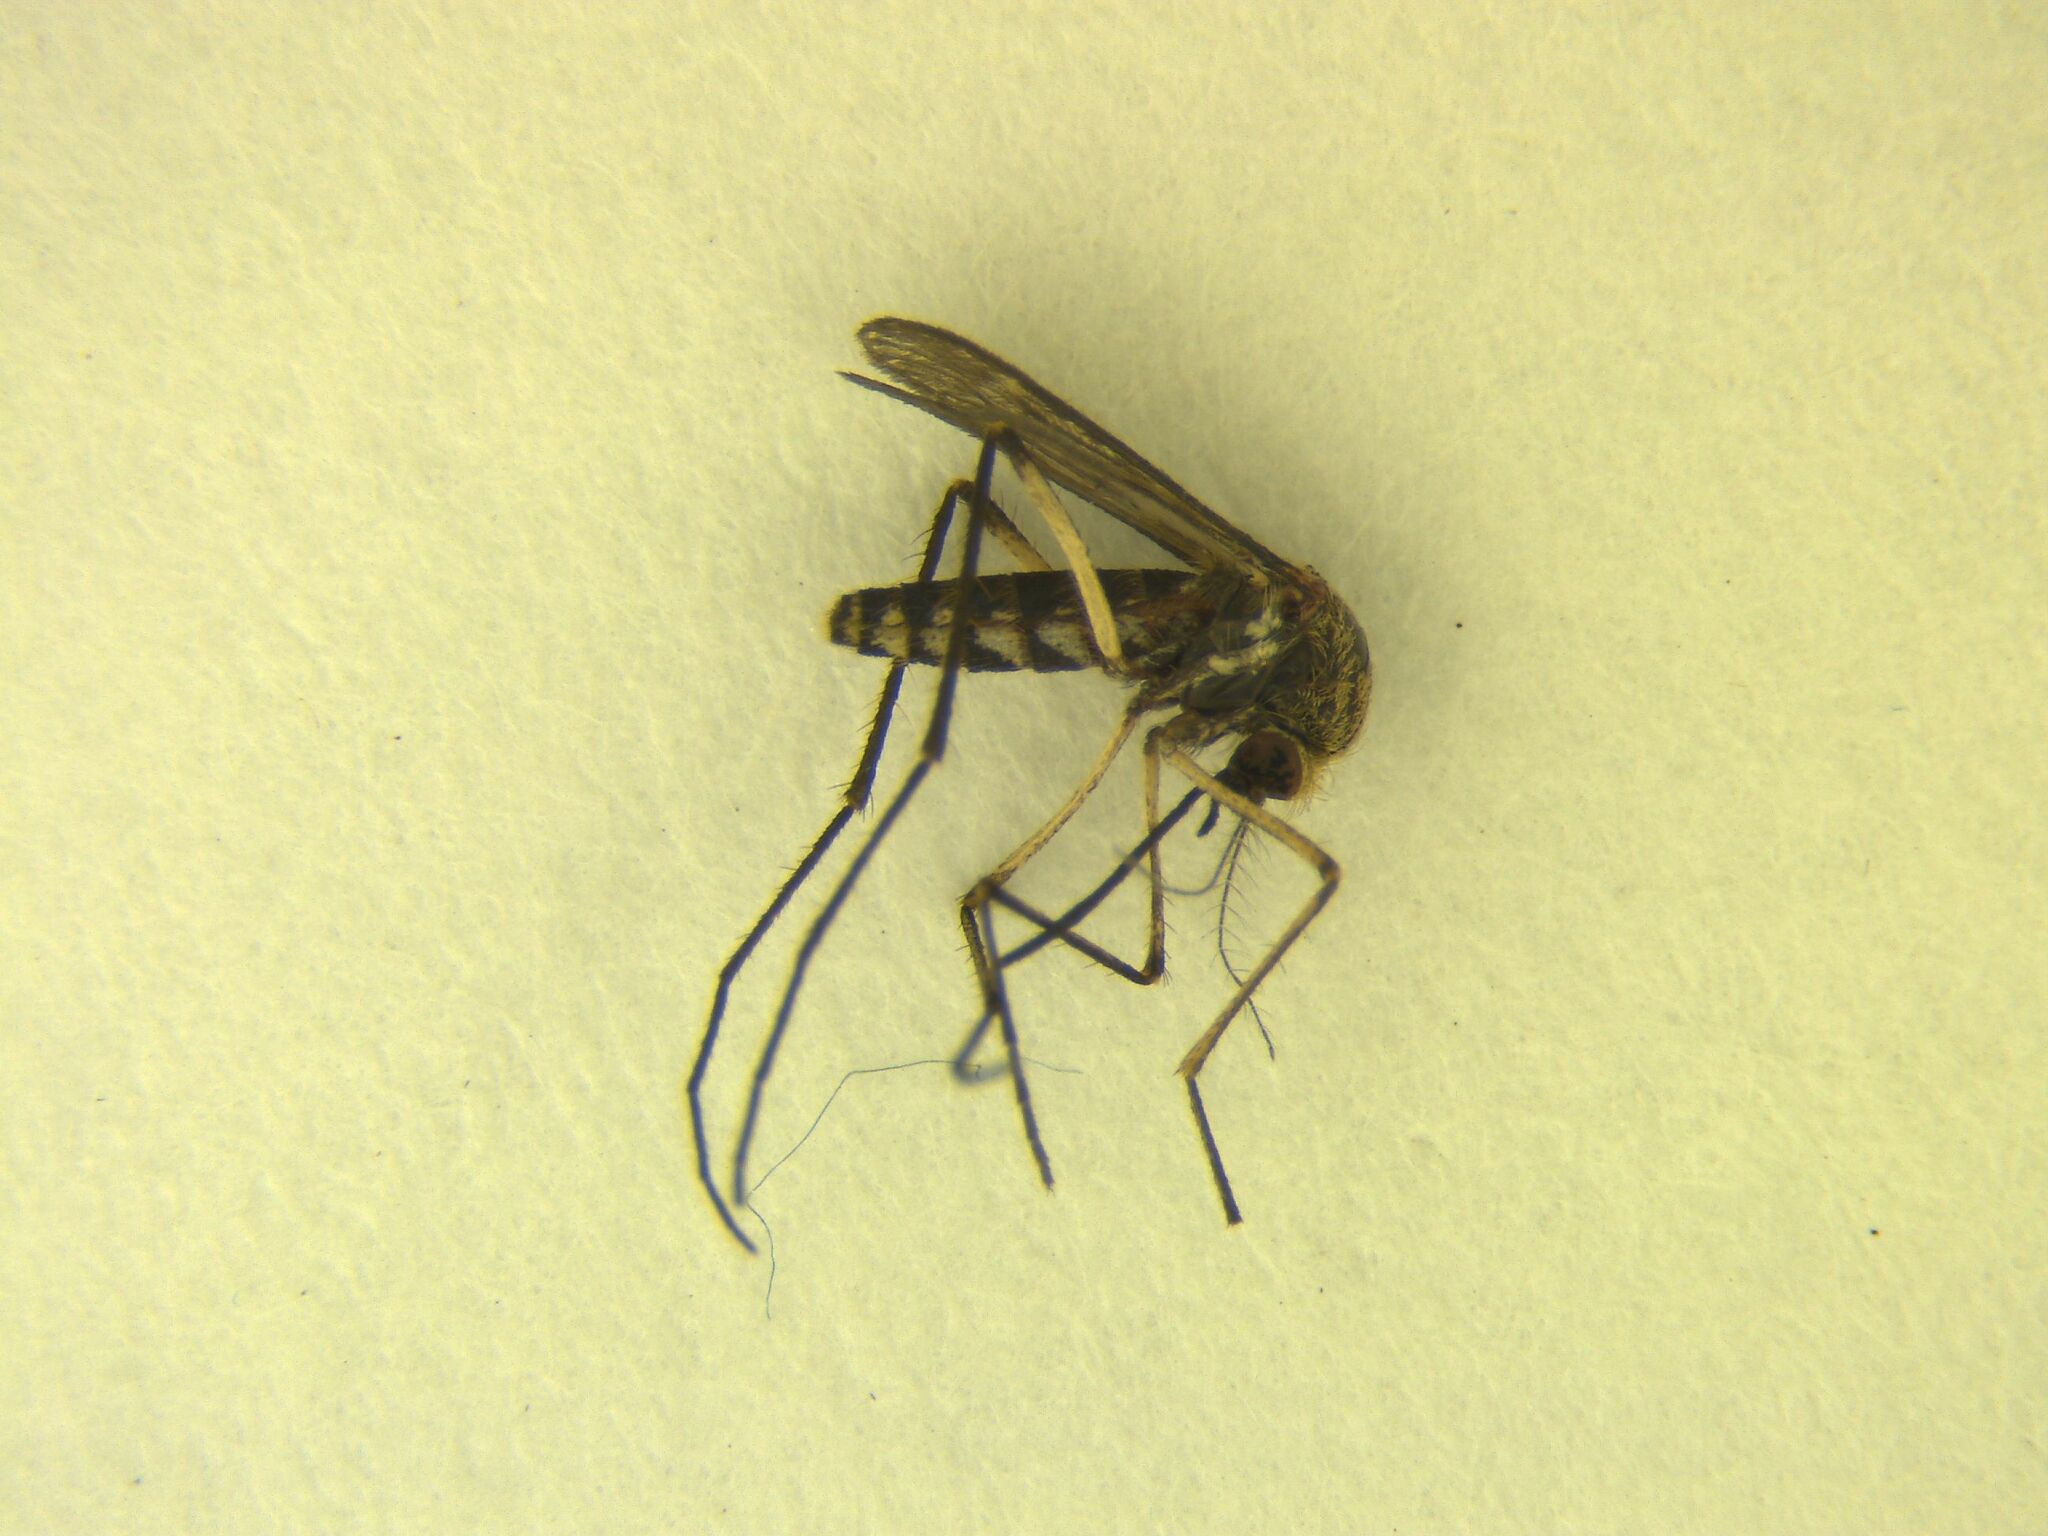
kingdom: Animalia
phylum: Arthropoda
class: Insecta
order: Diptera
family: Culicidae
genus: Coquillettidia
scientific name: Coquillettidia iracunda
